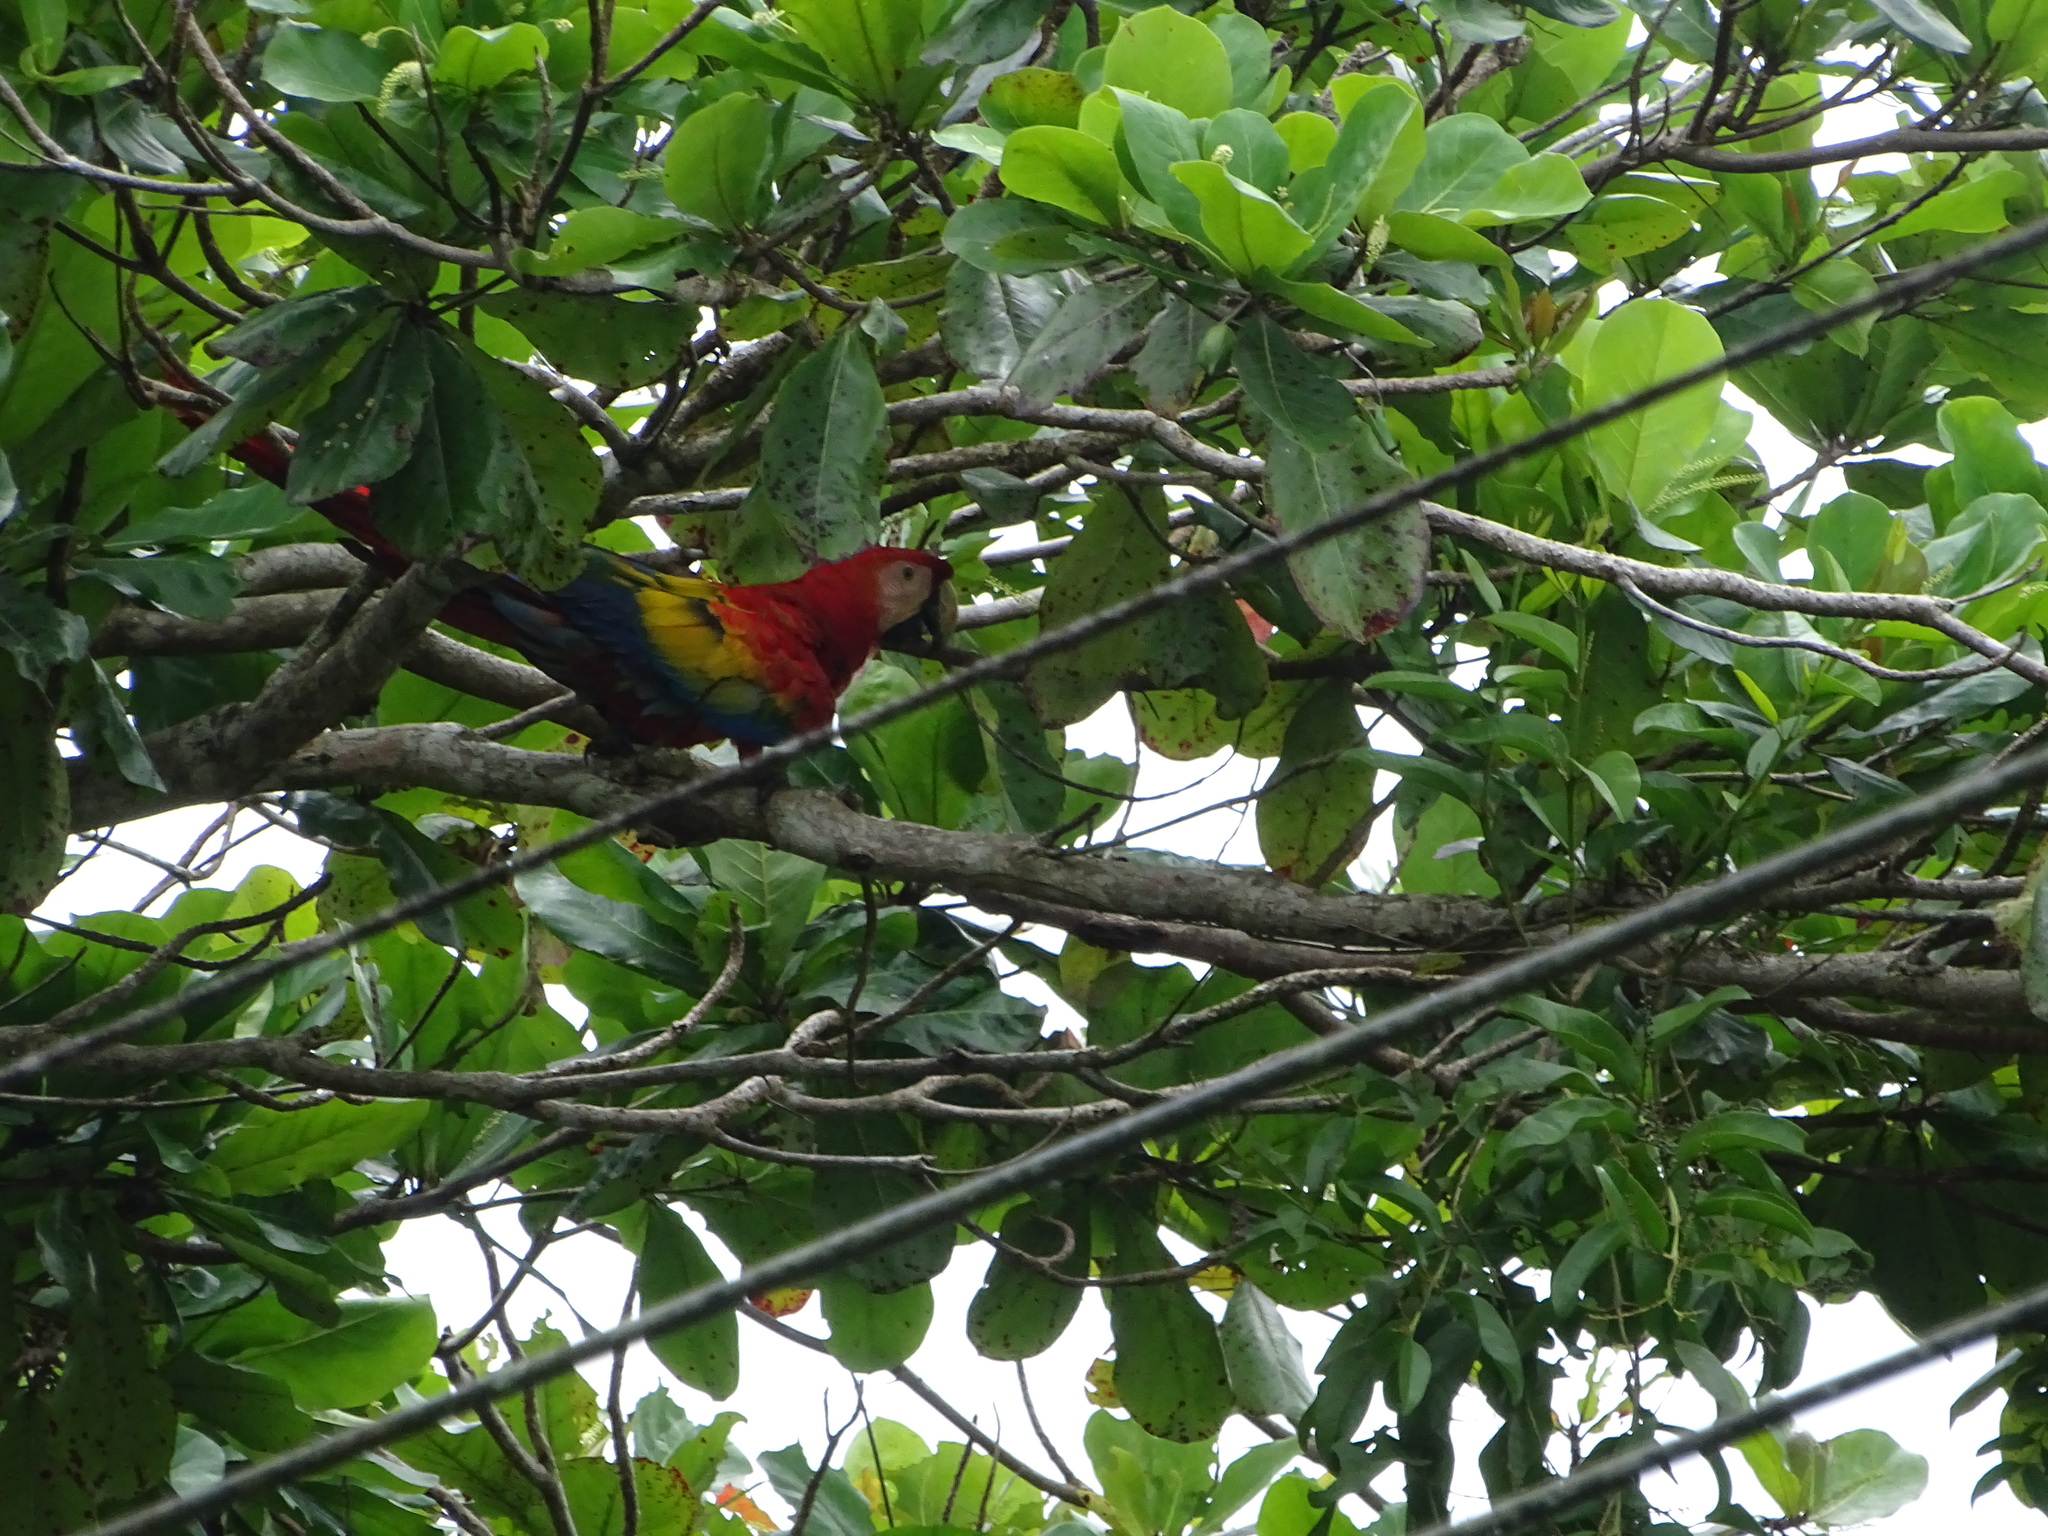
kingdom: Animalia
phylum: Chordata
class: Aves
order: Psittaciformes
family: Psittacidae
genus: Ara
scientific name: Ara macao
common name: Scarlet macaw
